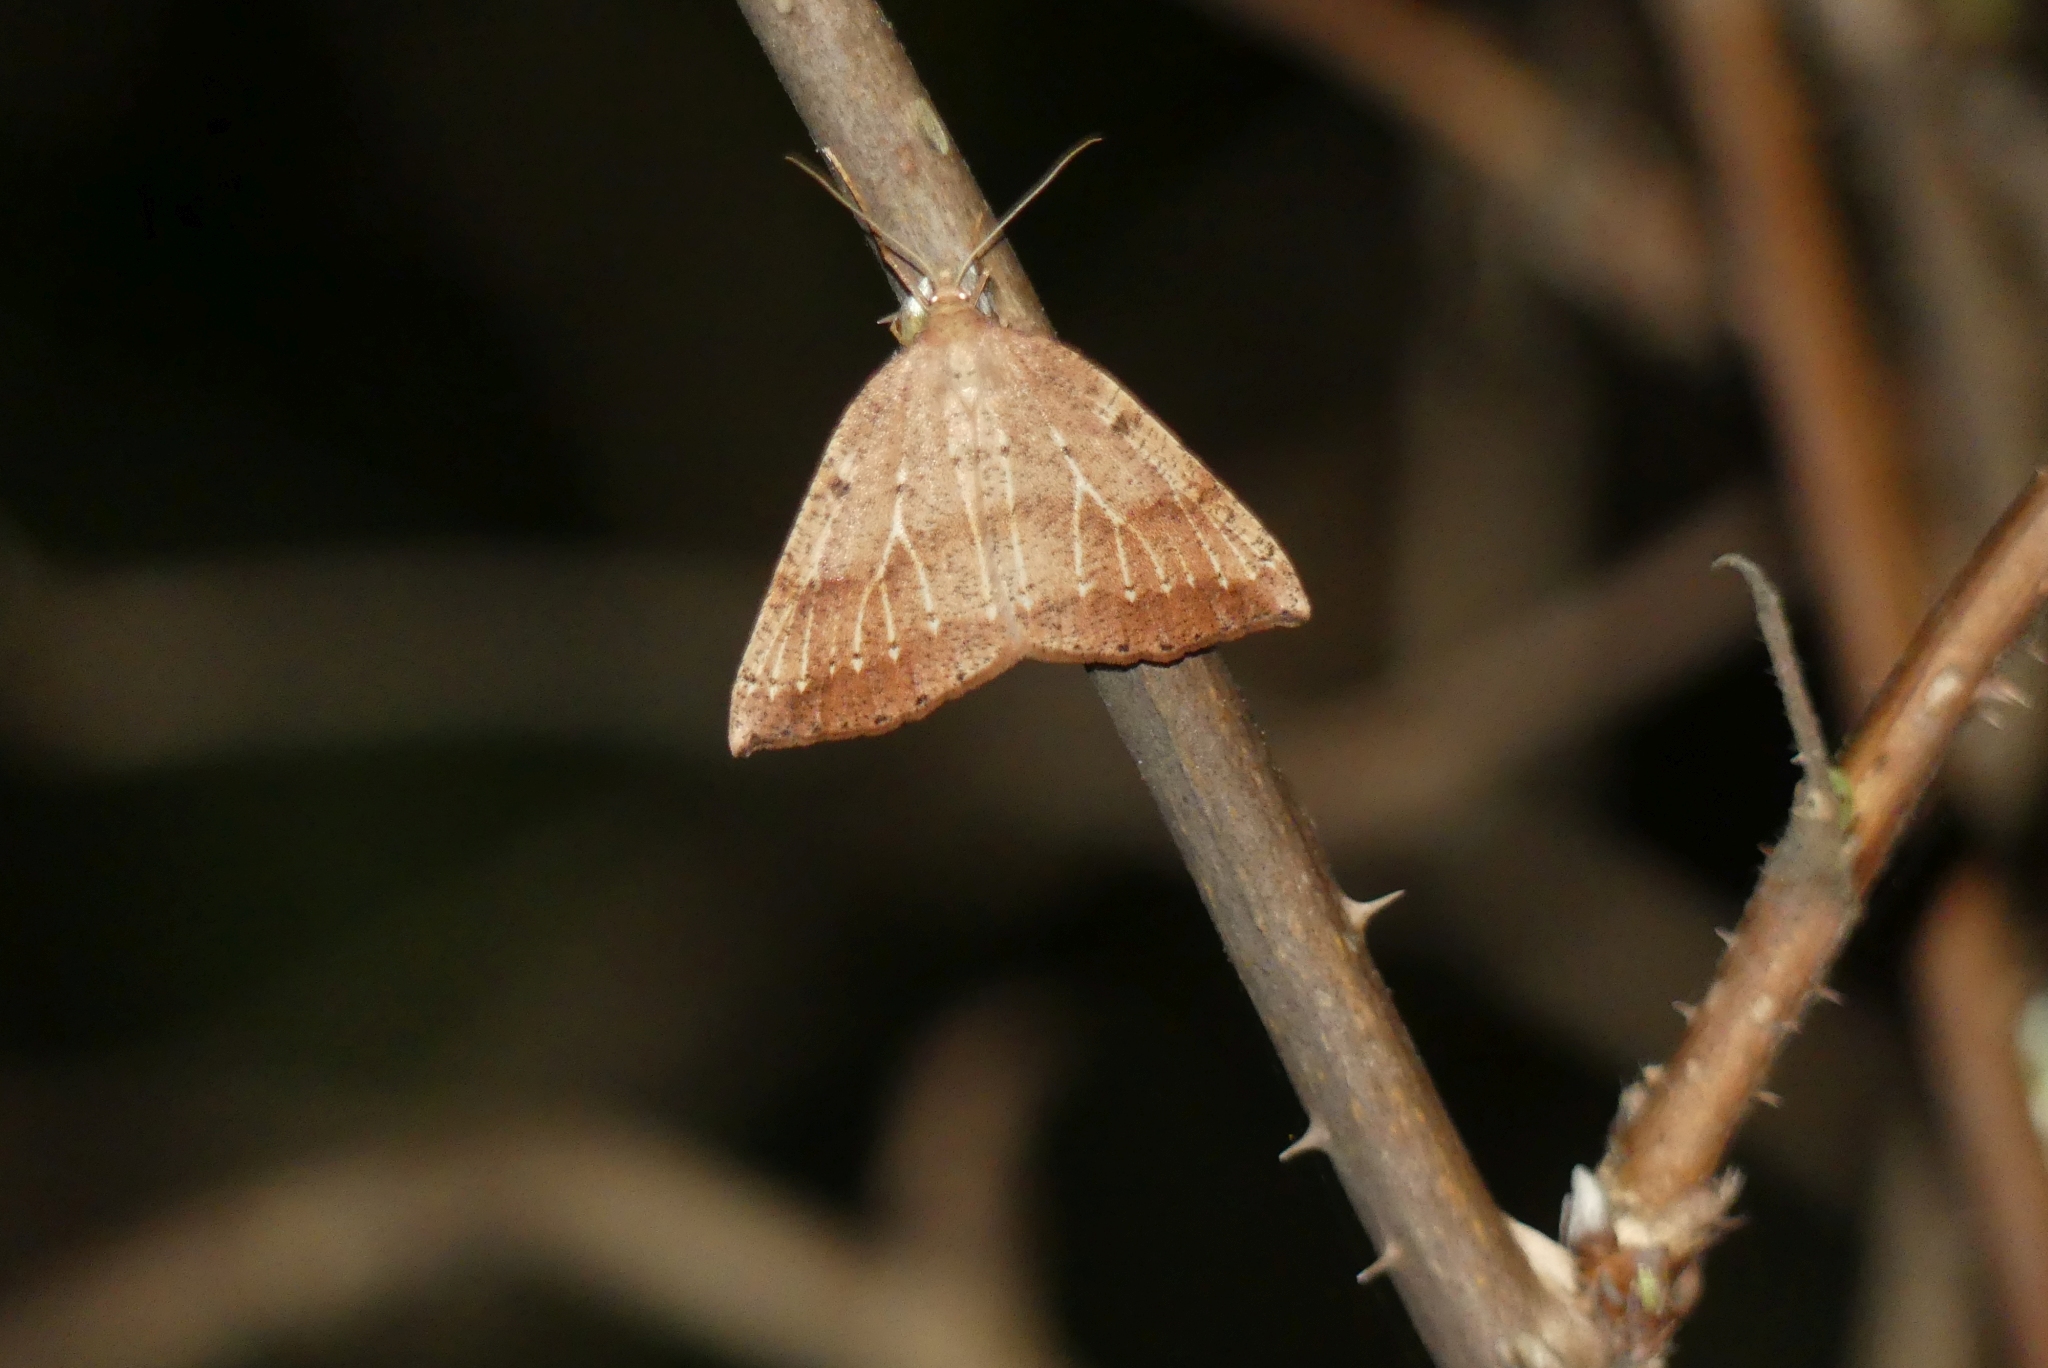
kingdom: Animalia
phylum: Arthropoda
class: Insecta
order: Lepidoptera
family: Geometridae
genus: Thallophaga
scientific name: Thallophaga hyperborea
